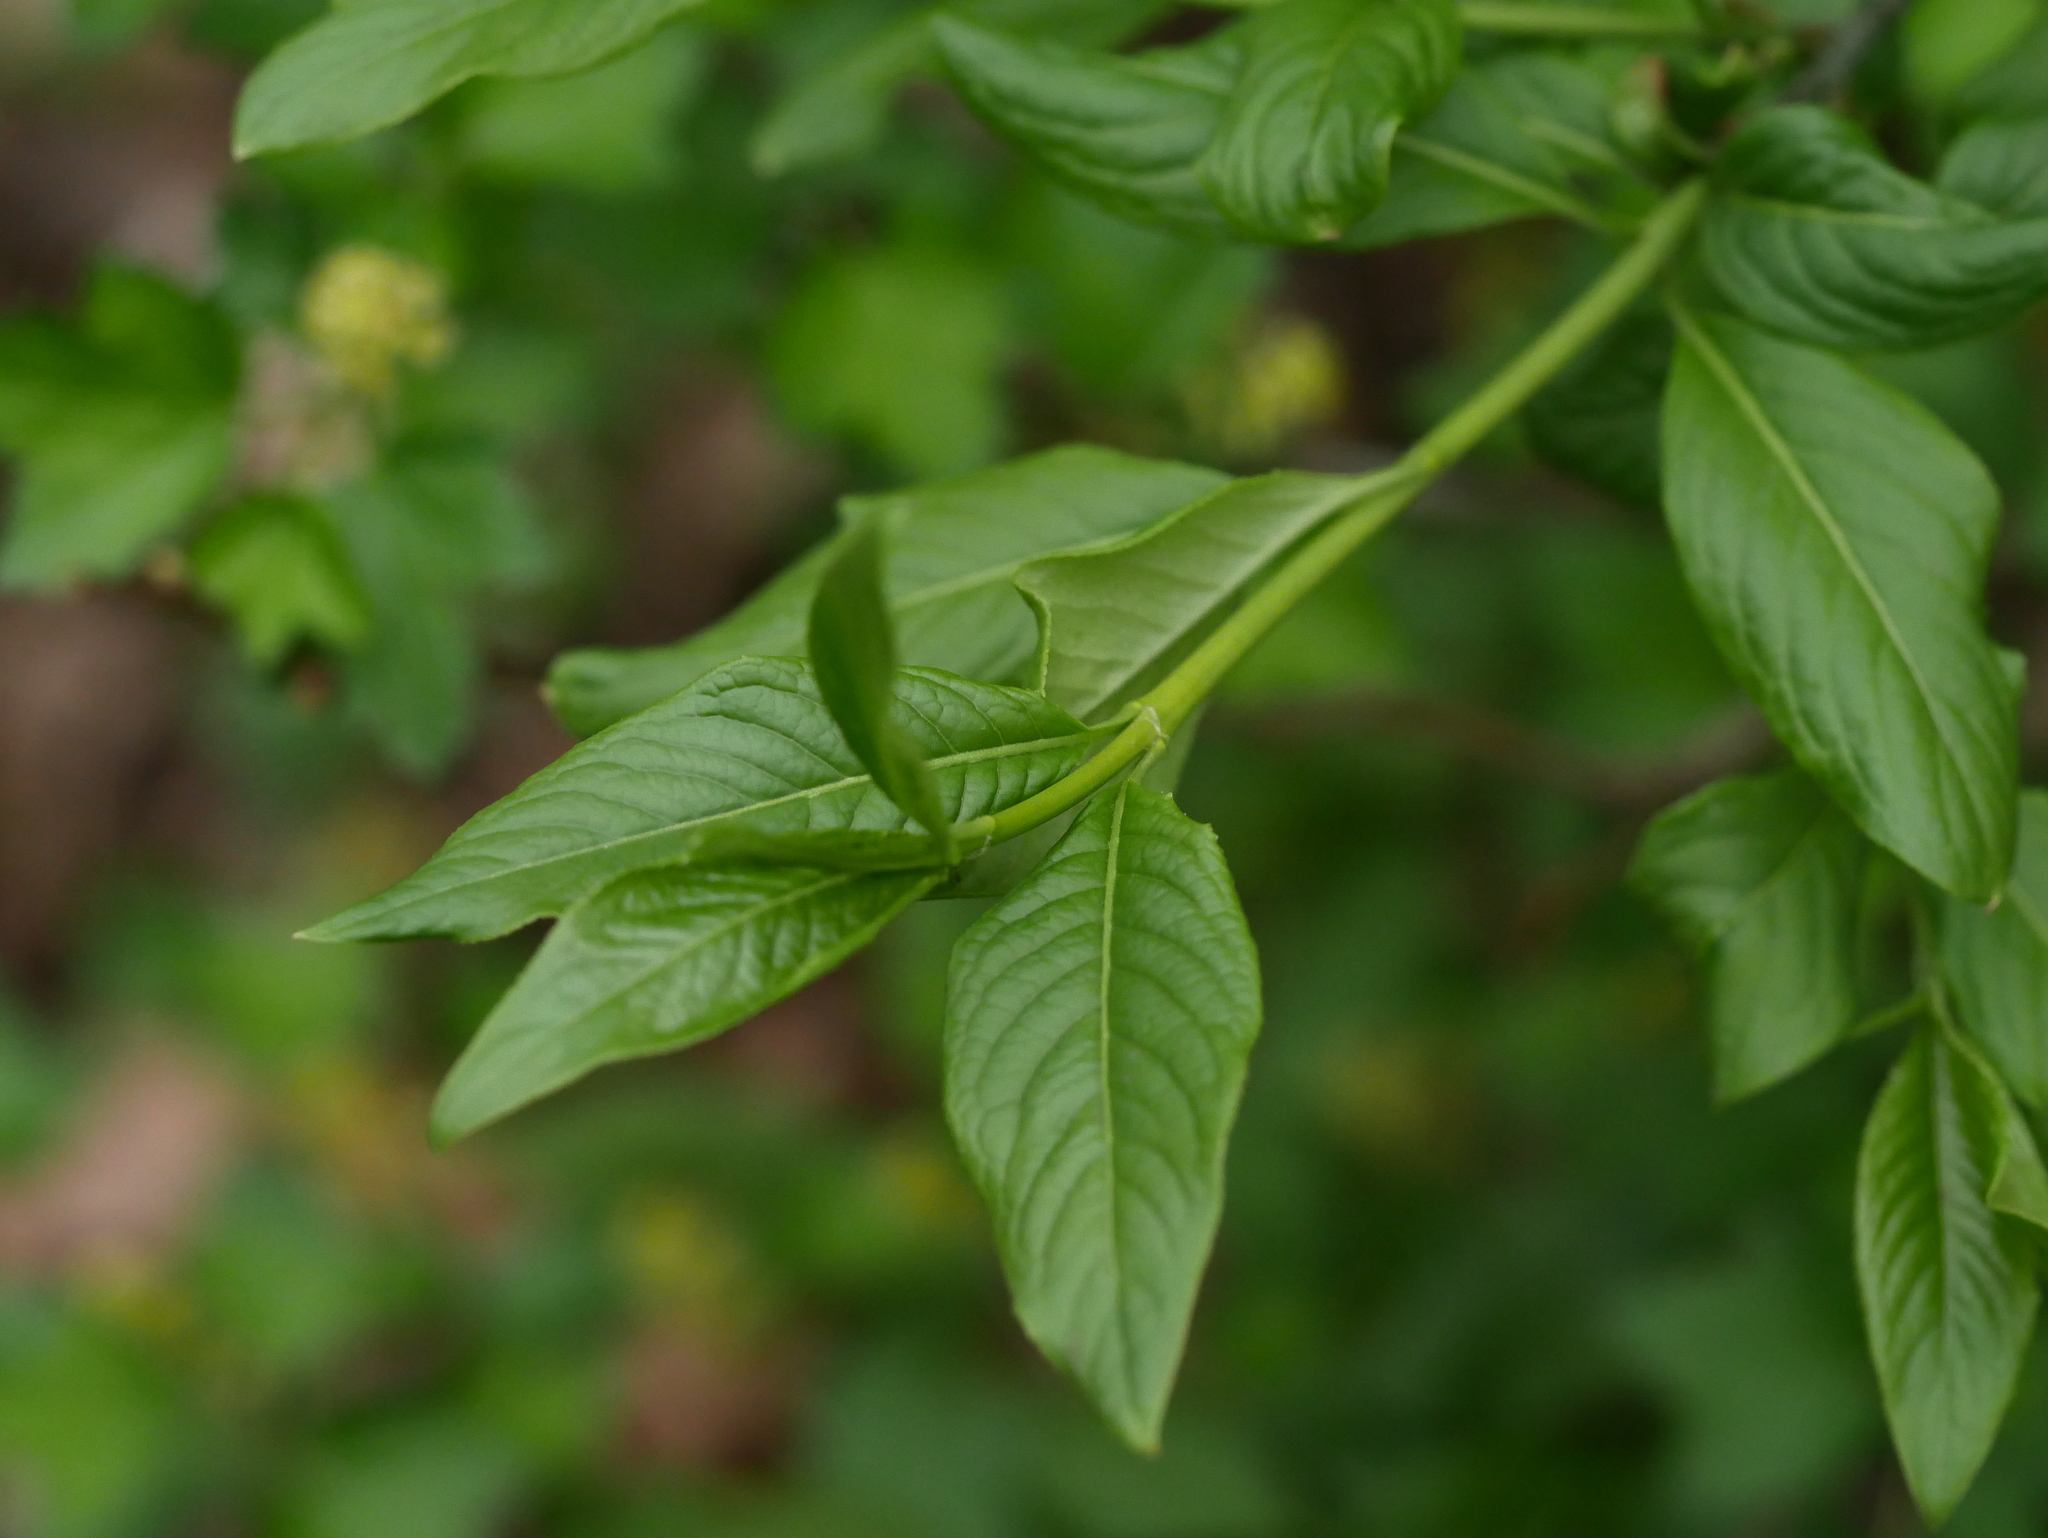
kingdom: Plantae
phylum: Tracheophyta
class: Magnoliopsida
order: Celastrales
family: Celastraceae
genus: Euonymus
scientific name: Euonymus europaeus
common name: Spindle
